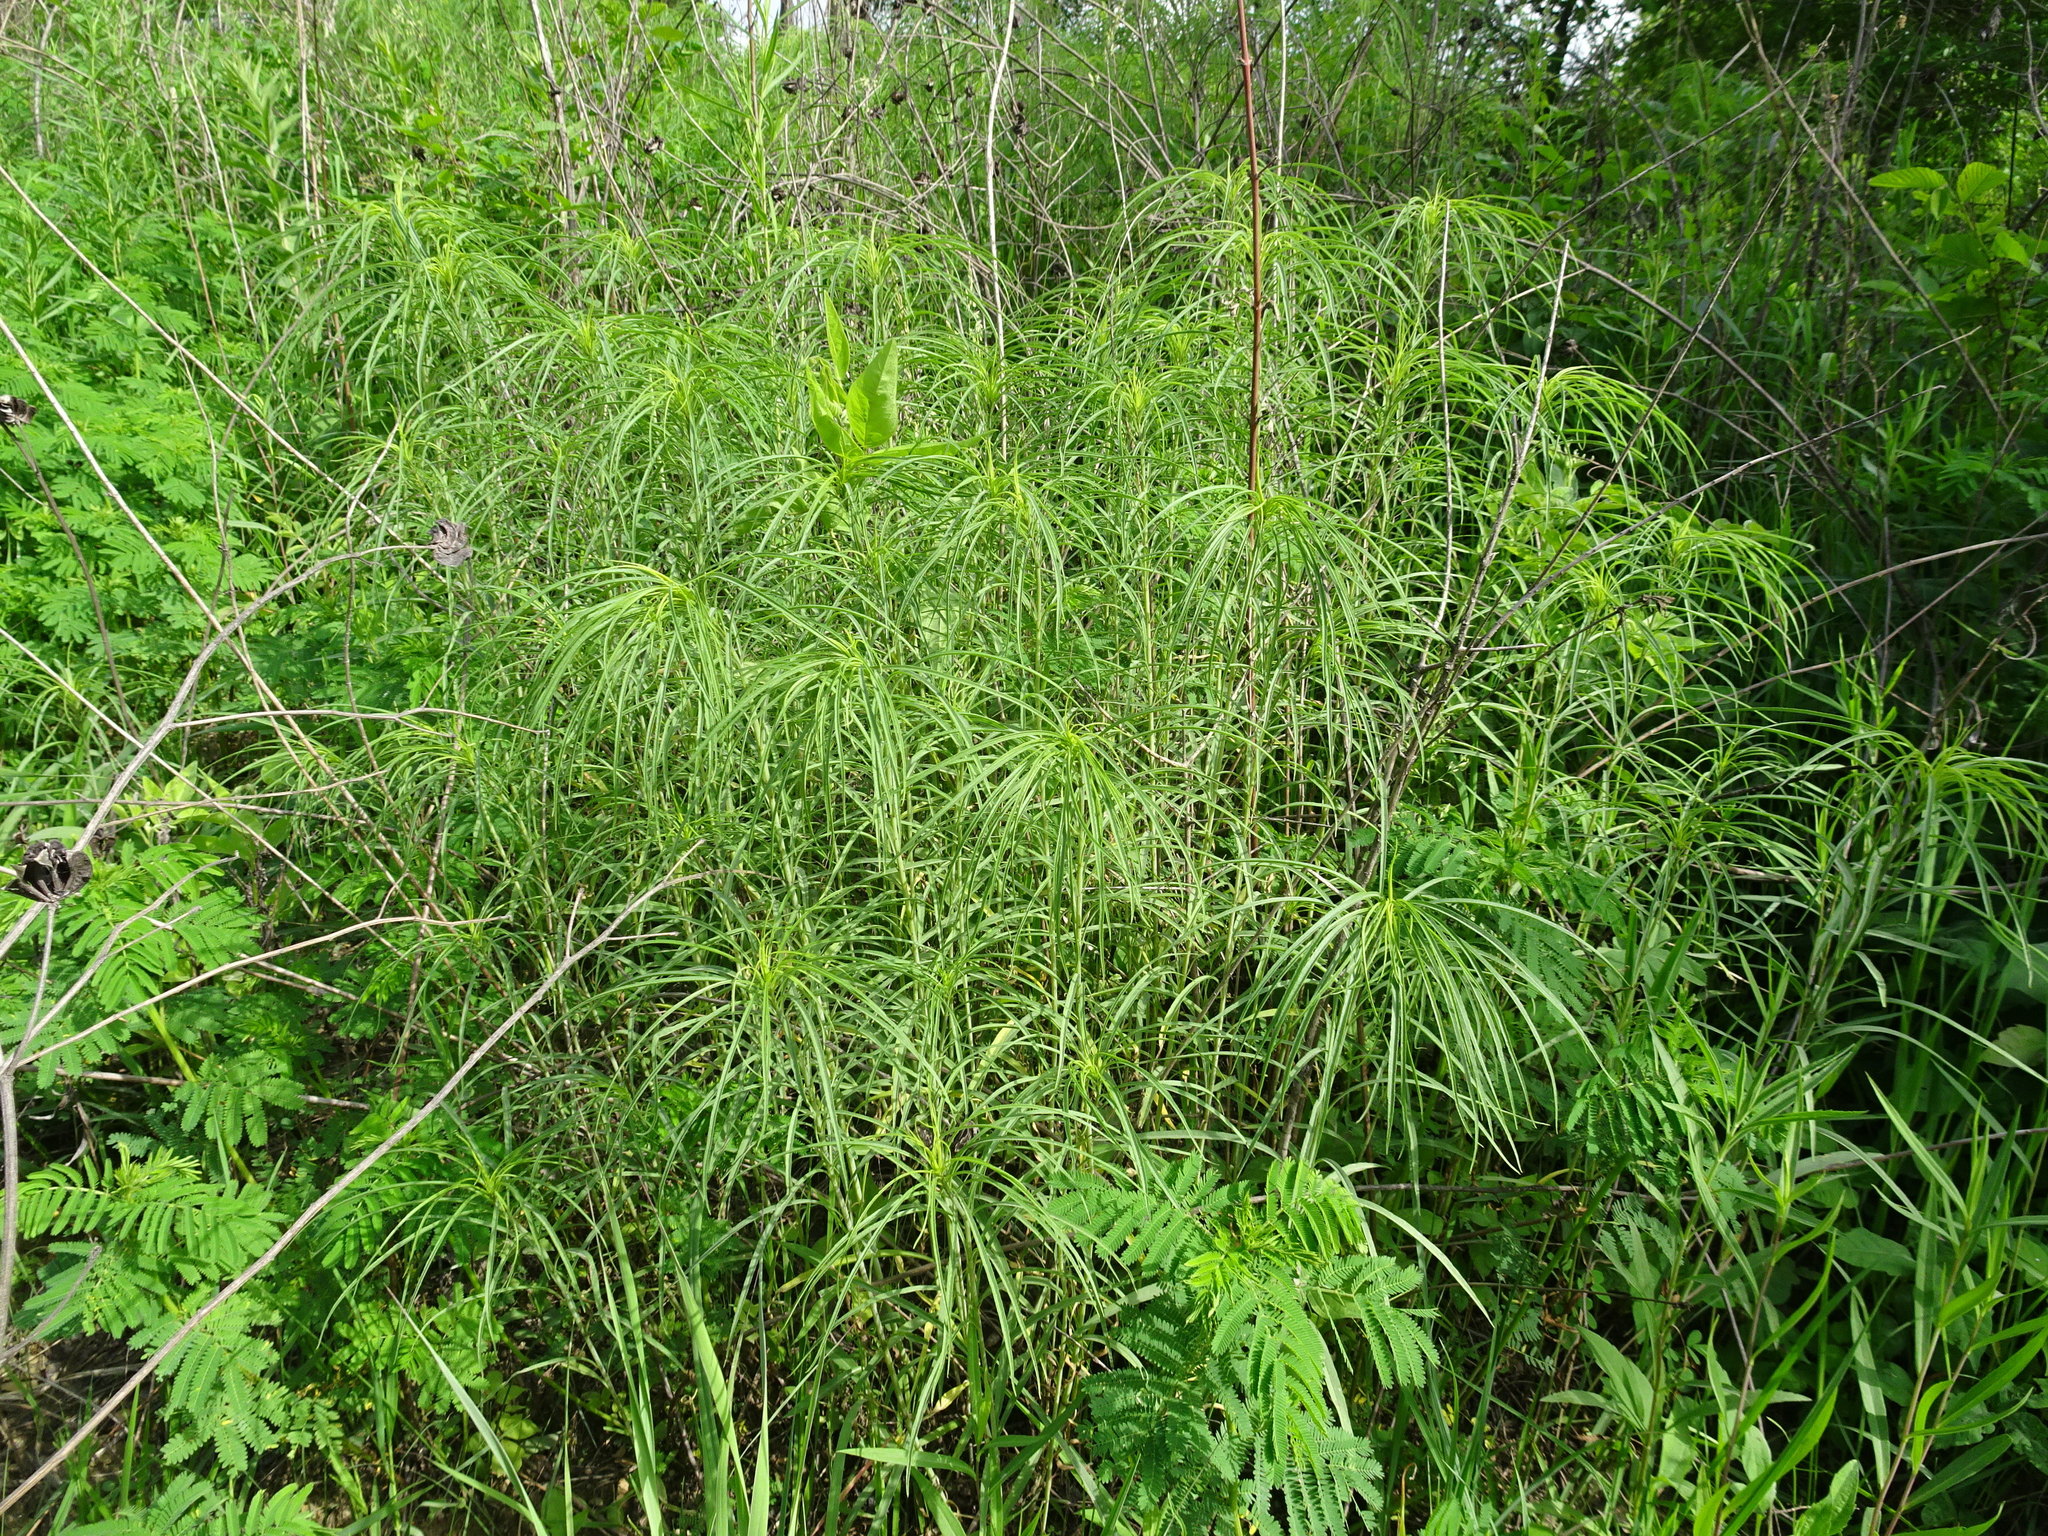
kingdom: Plantae
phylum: Tracheophyta
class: Magnoliopsida
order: Asterales
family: Asteraceae
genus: Helianthus
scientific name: Helianthus salicifolius
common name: Willowleaf sunflower
